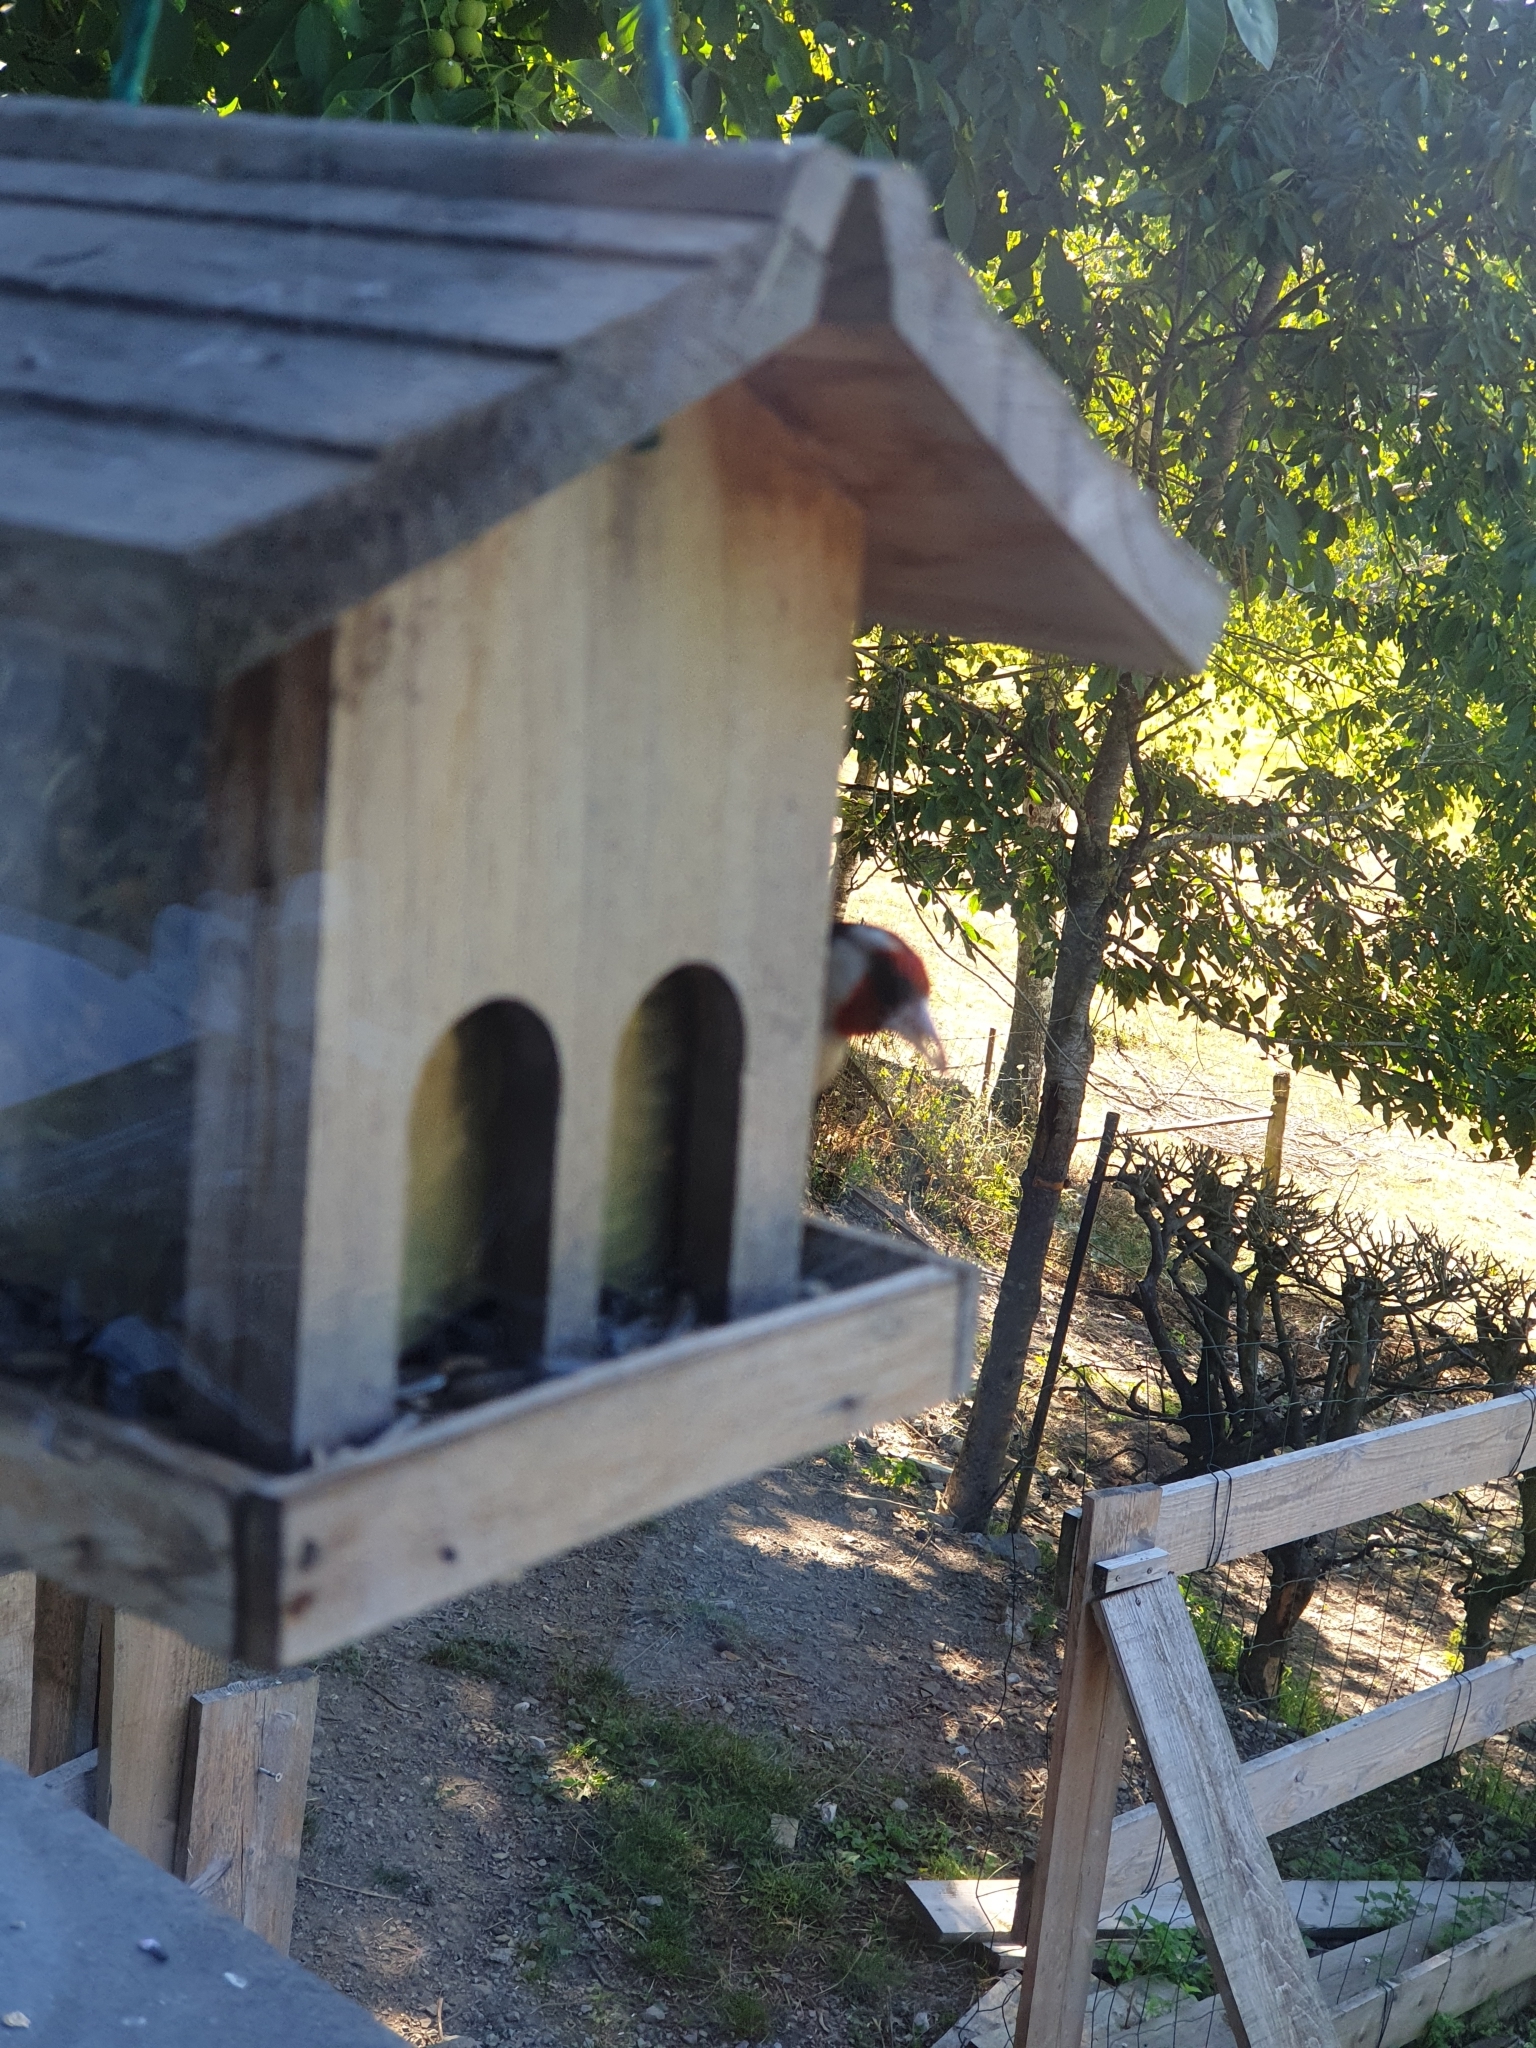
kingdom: Animalia
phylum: Chordata
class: Aves
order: Passeriformes
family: Fringillidae
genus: Carduelis
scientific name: Carduelis carduelis
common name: European goldfinch
